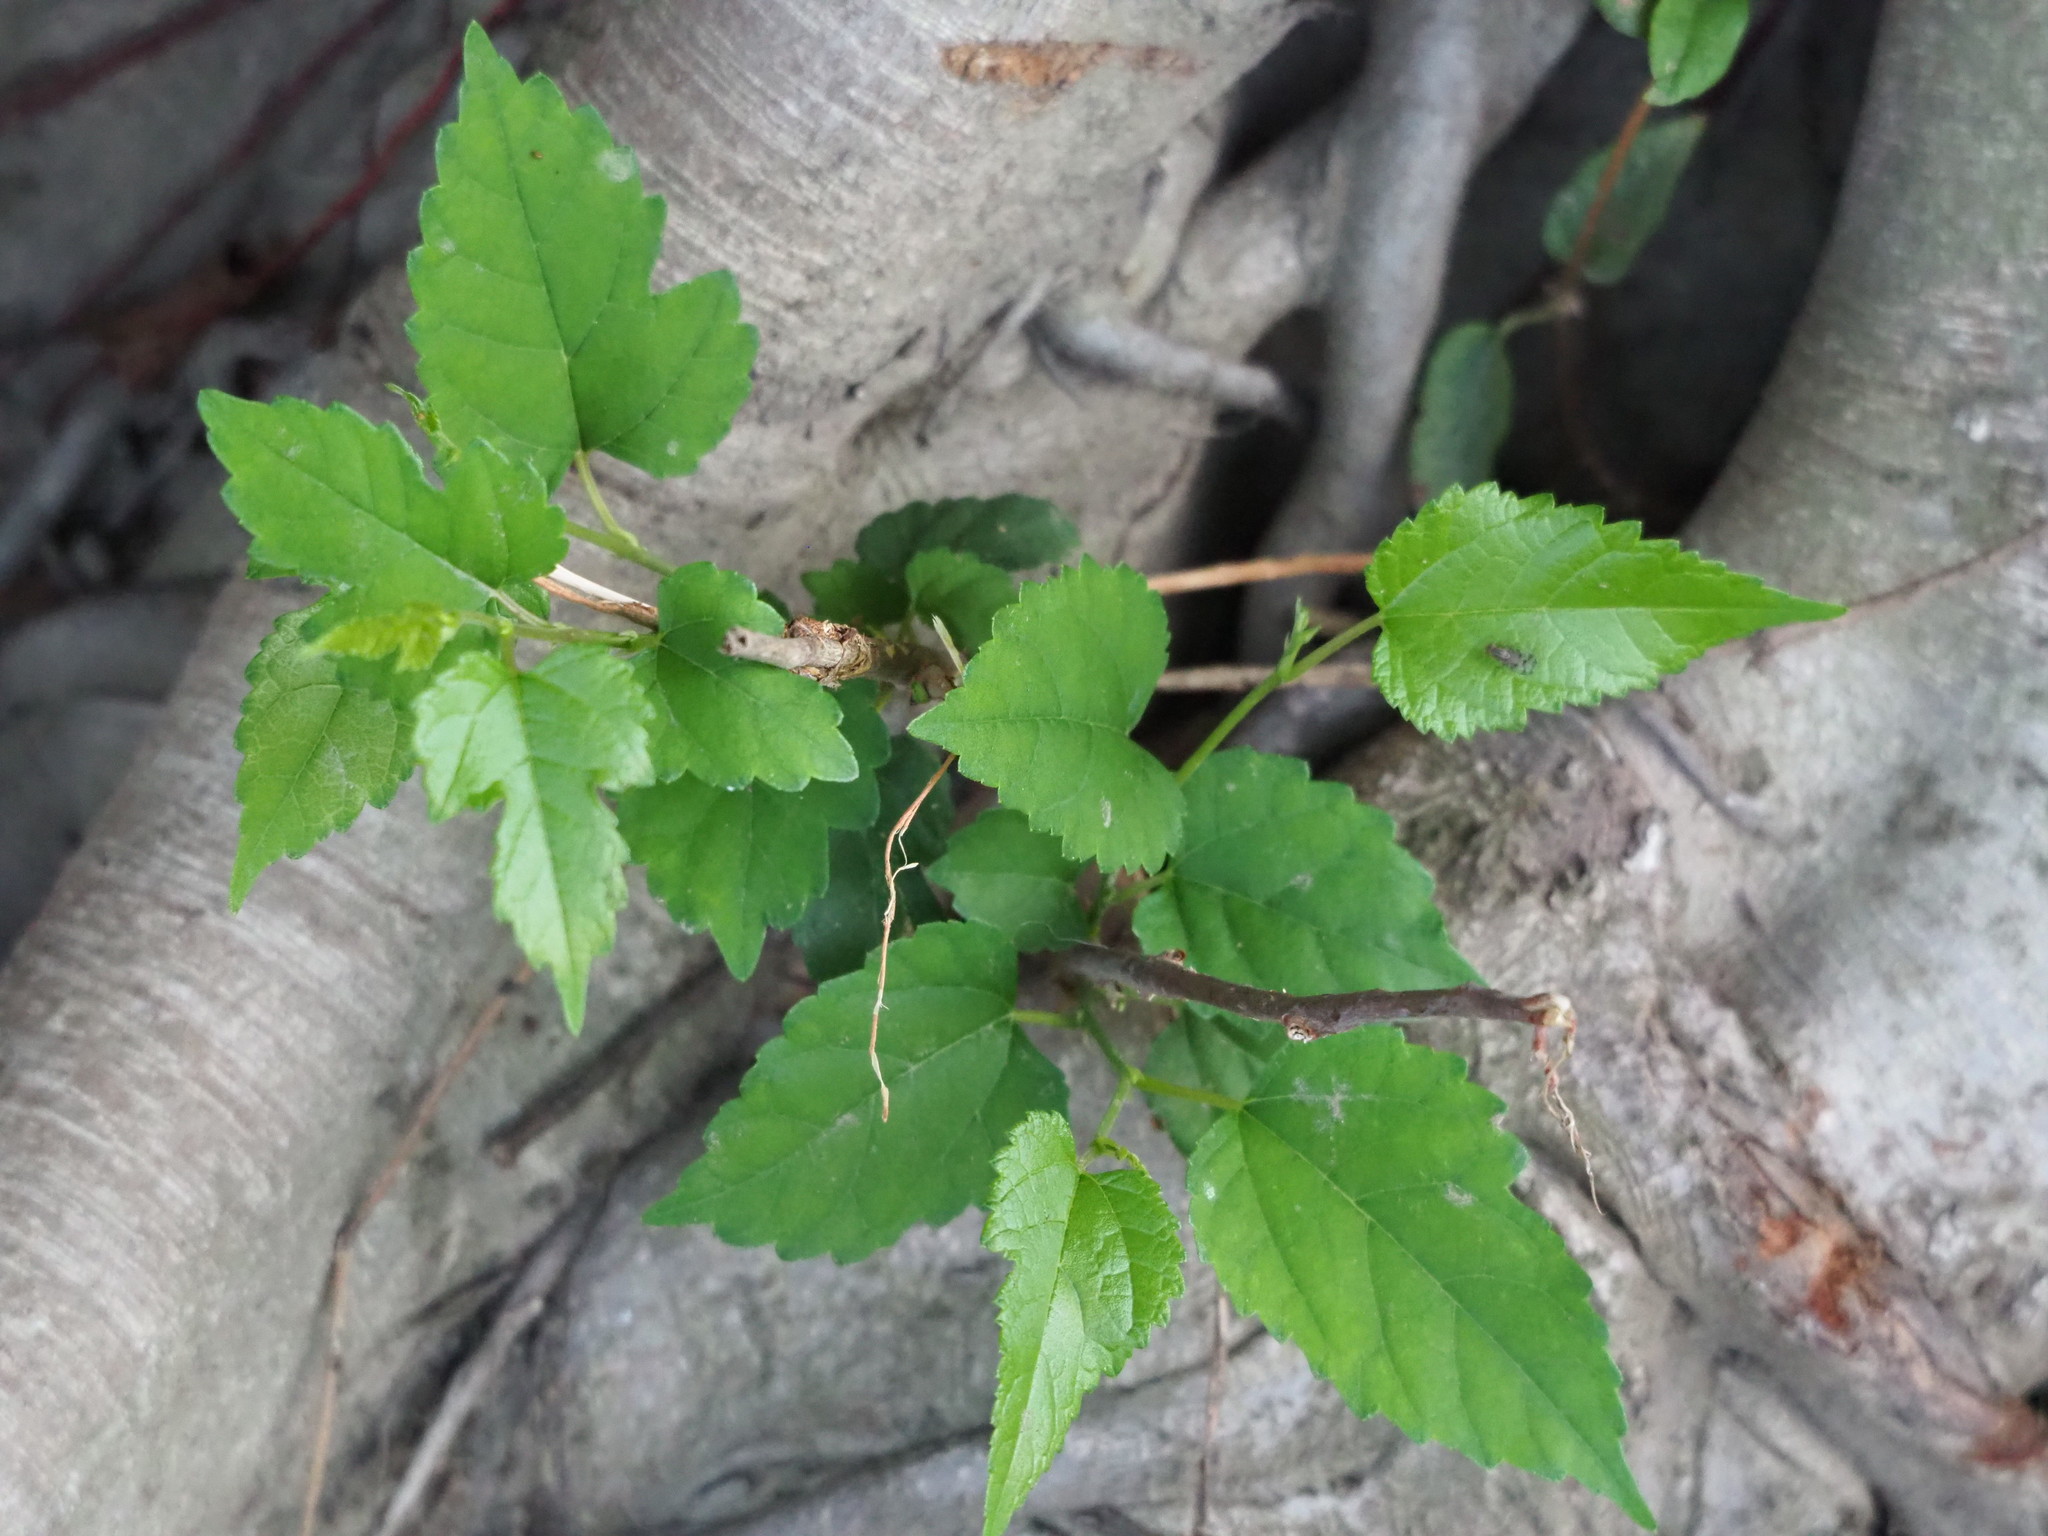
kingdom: Plantae
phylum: Tracheophyta
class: Magnoliopsida
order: Rosales
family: Moraceae
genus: Morus
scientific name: Morus indica
